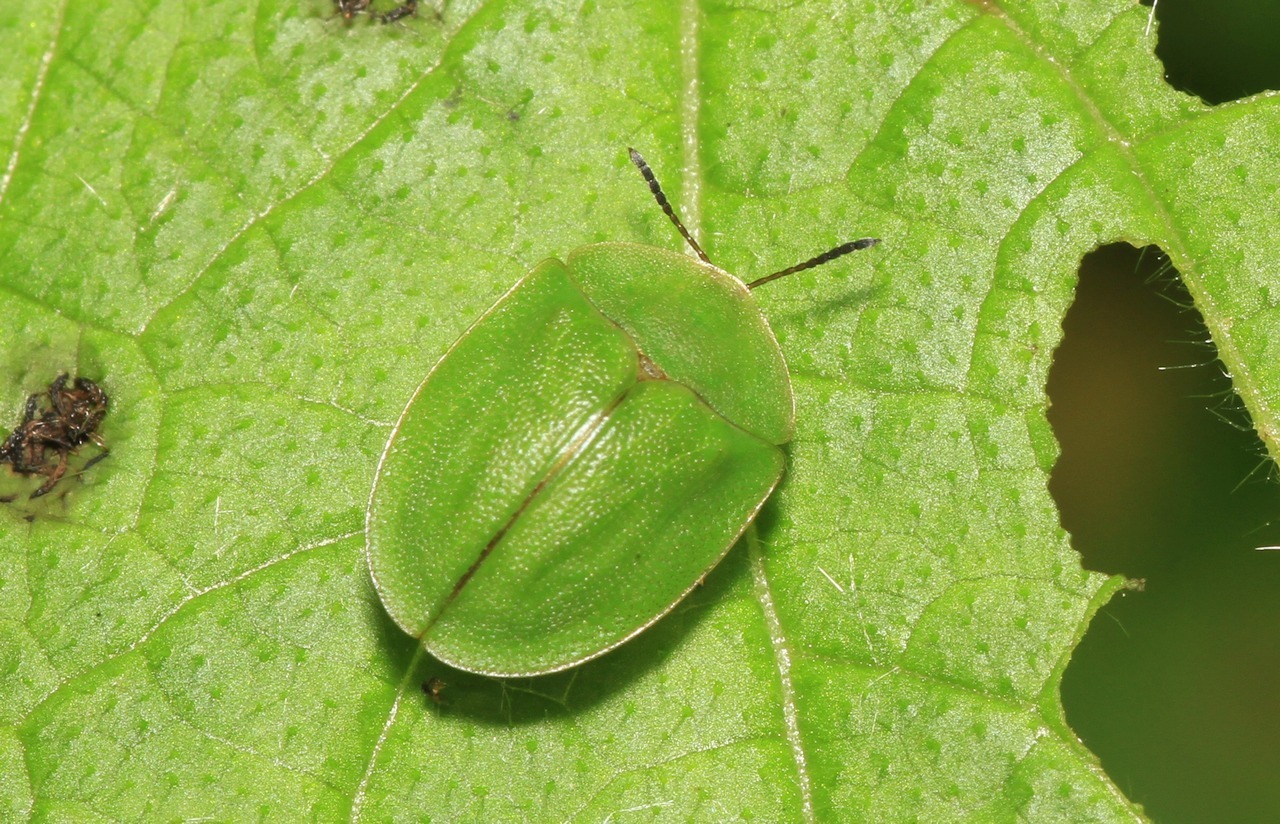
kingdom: Animalia
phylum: Arthropoda
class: Insecta
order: Coleoptera
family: Chrysomelidae
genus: Cassida
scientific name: Cassida viridis
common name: Green tortoise beetle
